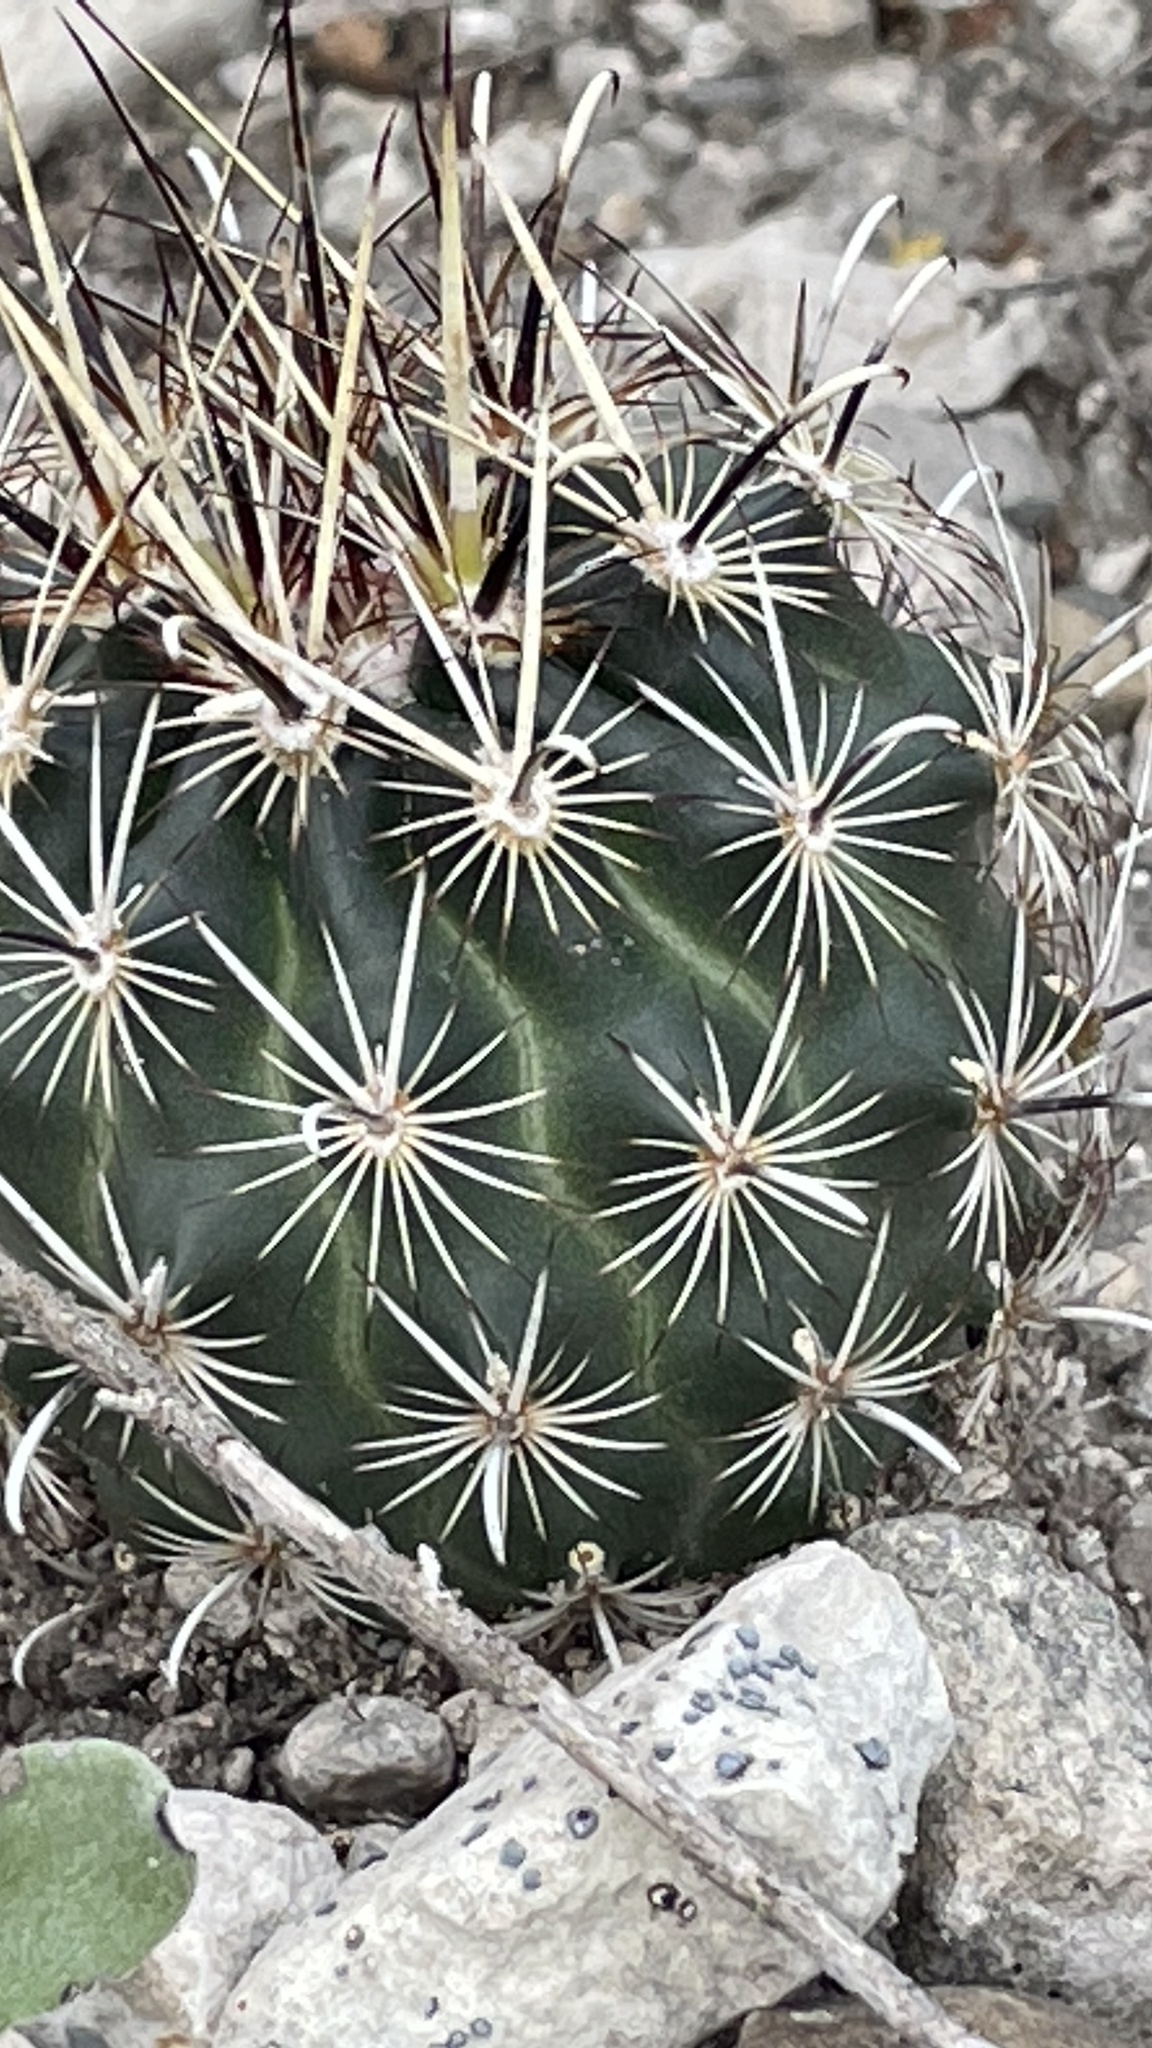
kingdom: Plantae
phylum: Tracheophyta
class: Magnoliopsida
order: Caryophyllales
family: Cactaceae
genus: Sclerocactus
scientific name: Sclerocactus scheerii
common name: Scheer's fish-hook cactus
